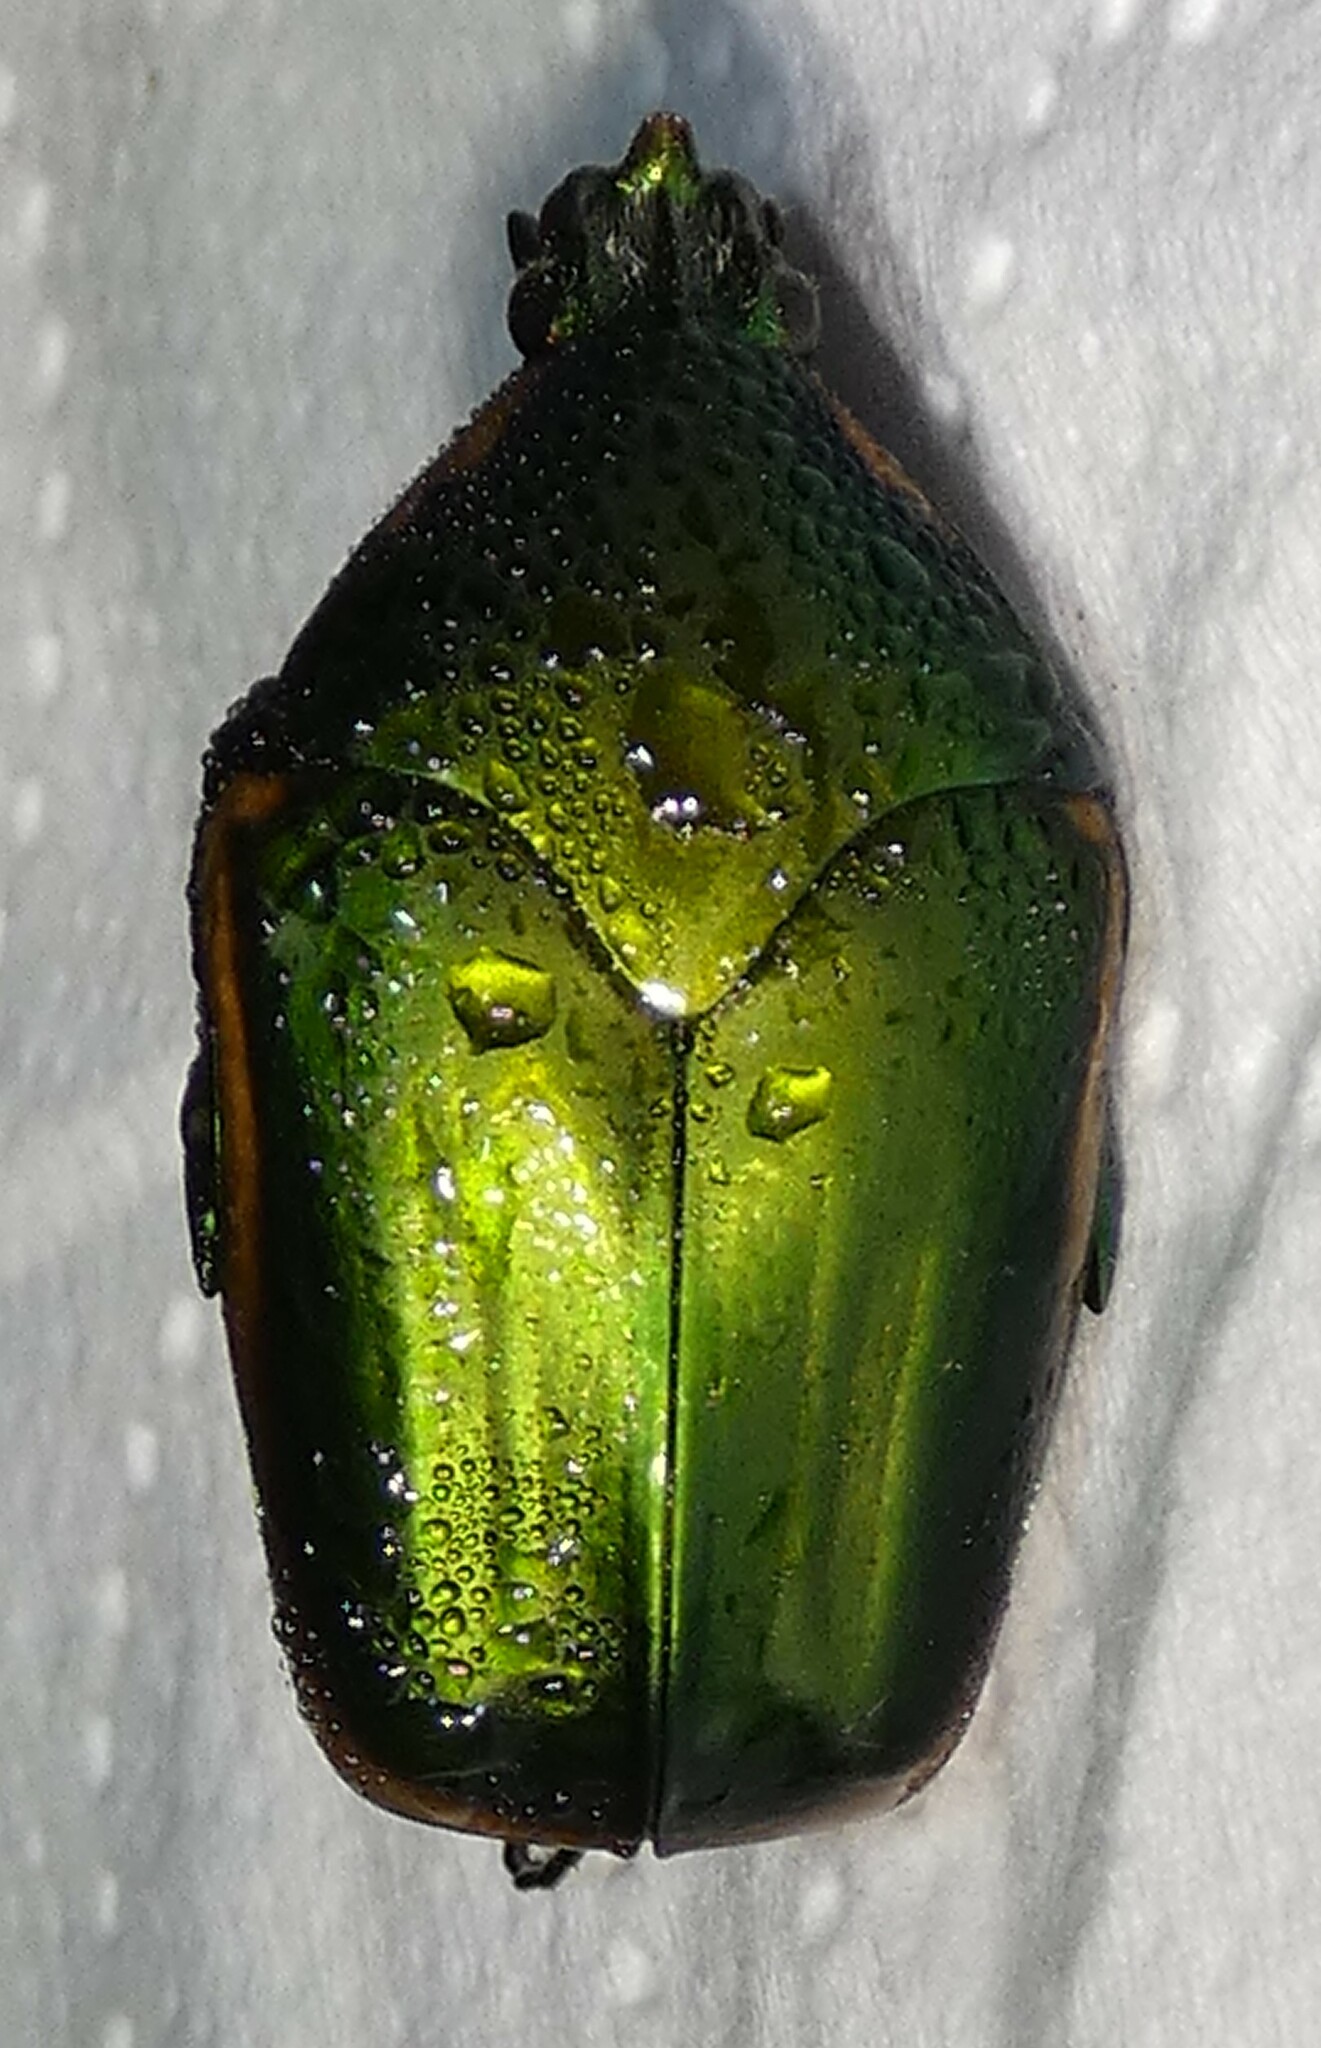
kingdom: Animalia
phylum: Arthropoda
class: Insecta
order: Coleoptera
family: Scarabaeidae
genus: Cotinis
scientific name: Cotinis nitida
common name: Common green june beetle
